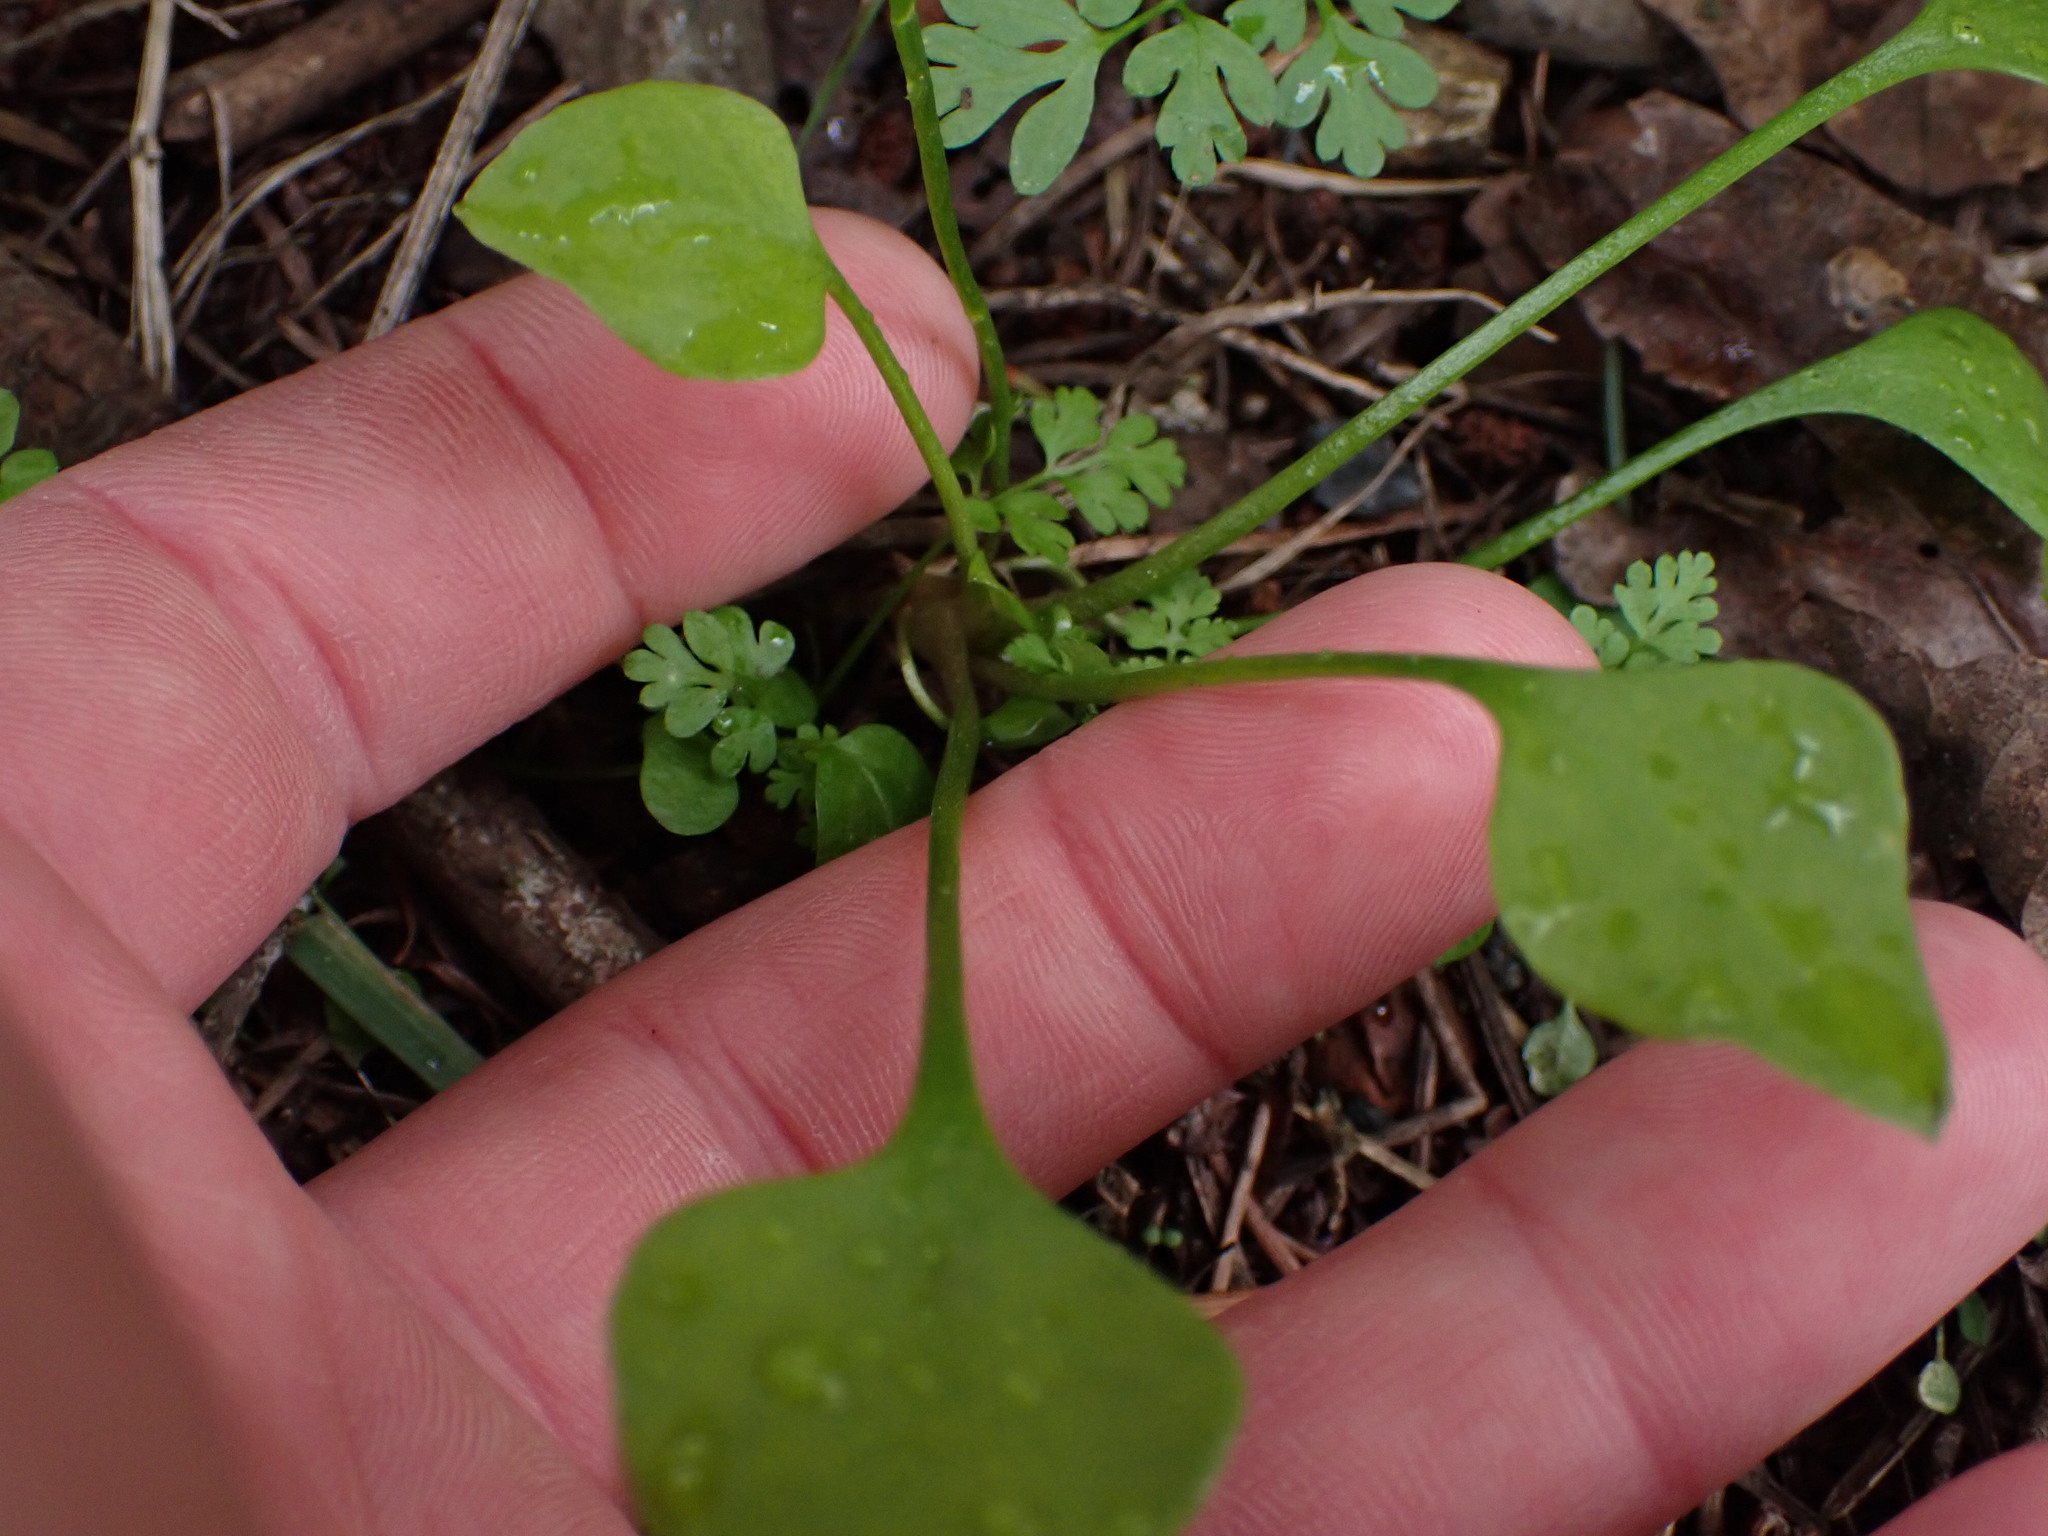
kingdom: Plantae
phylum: Tracheophyta
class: Magnoliopsida
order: Caryophyllales
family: Montiaceae
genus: Claytonia
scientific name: Claytonia perfoliata
